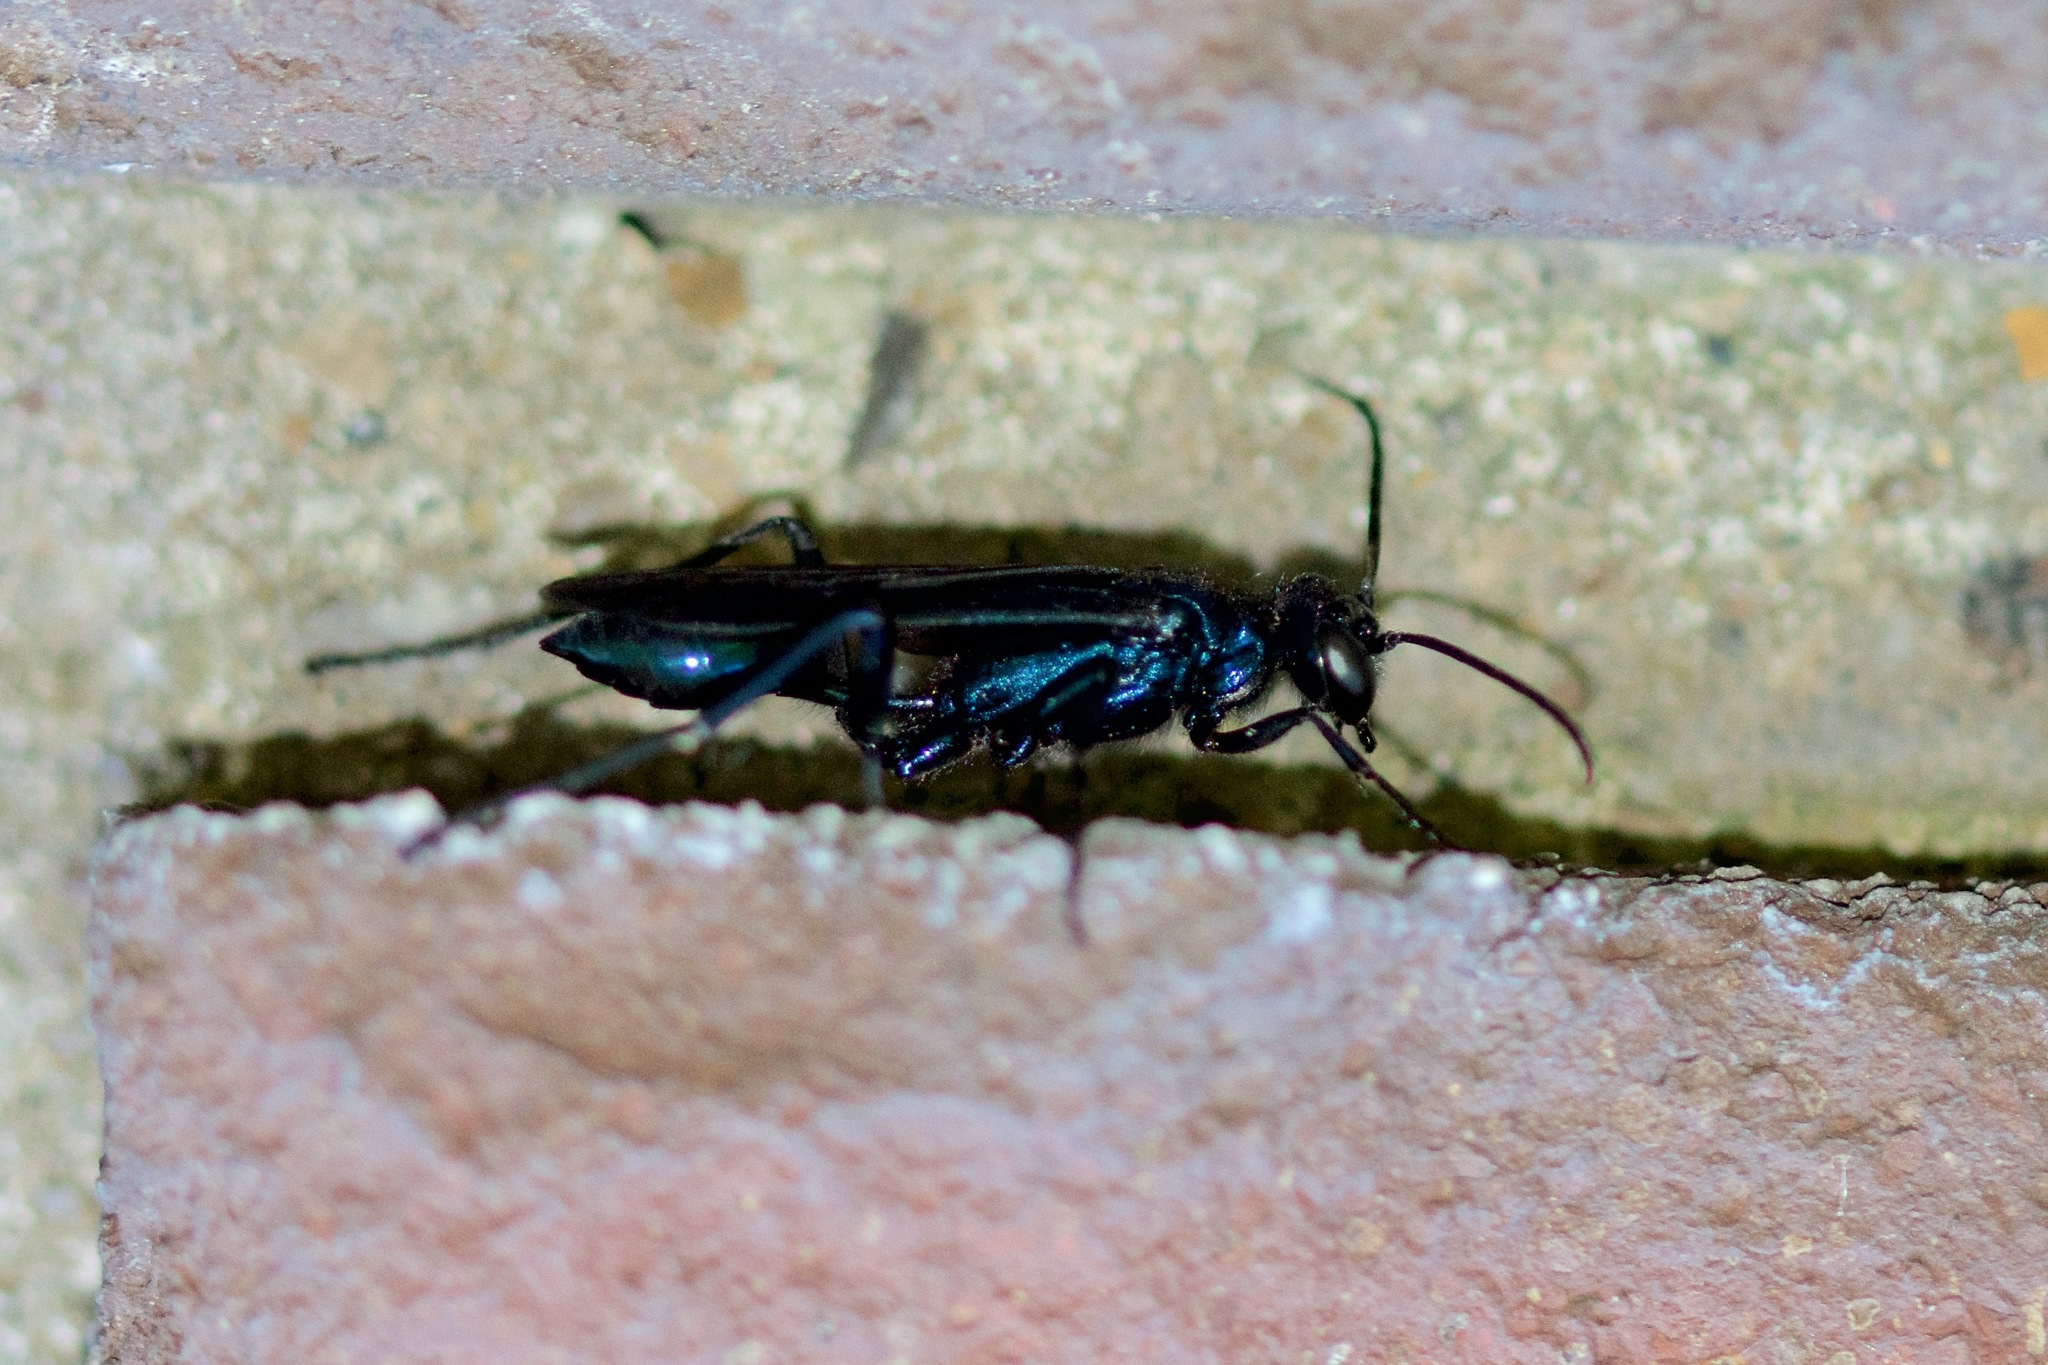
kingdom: Animalia
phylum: Arthropoda
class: Insecta
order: Hymenoptera
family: Sphecidae
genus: Chalybion
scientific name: Chalybion californicum
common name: Mud dauber
